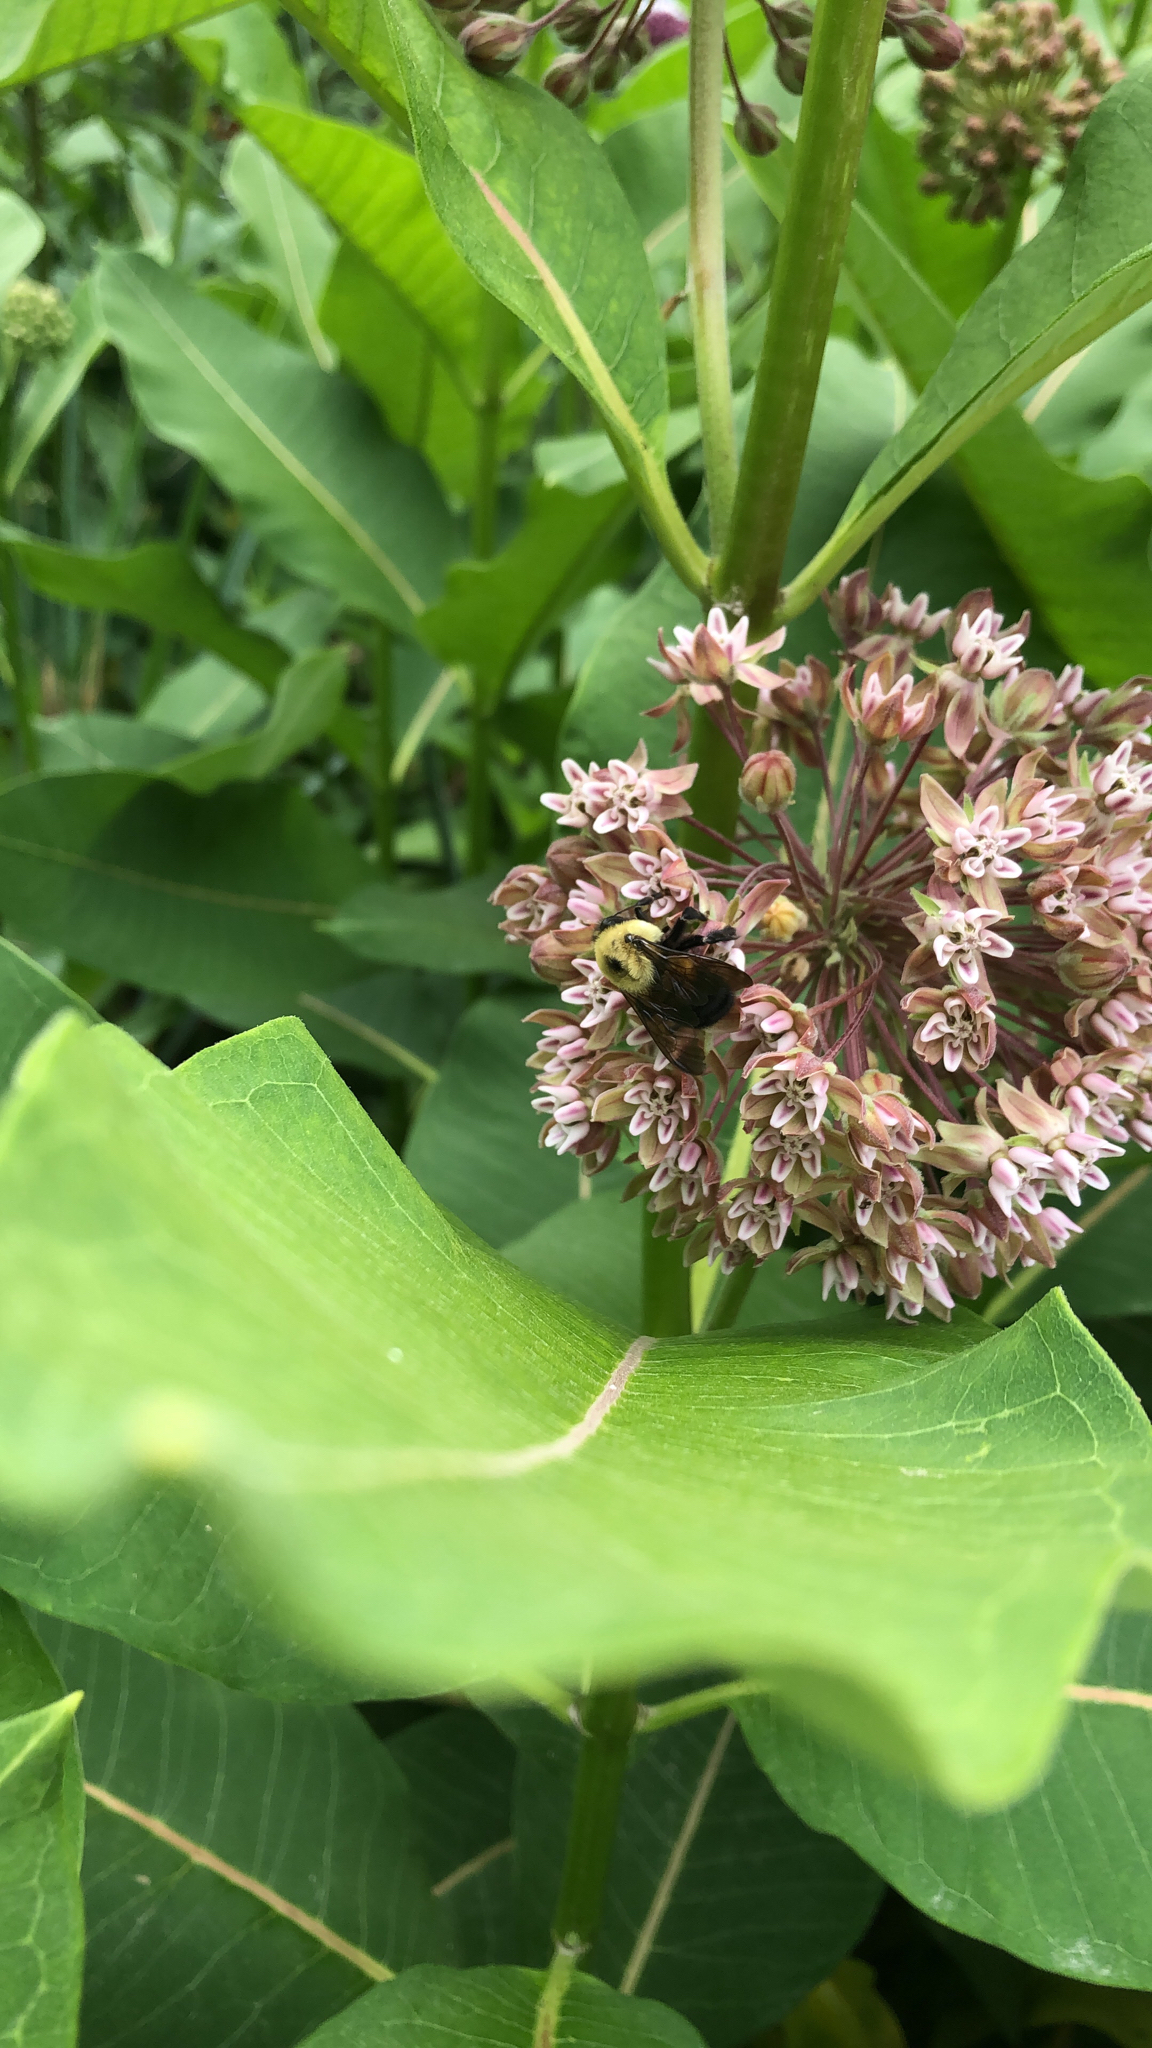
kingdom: Animalia
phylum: Arthropoda
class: Insecta
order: Hymenoptera
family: Apidae
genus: Bombus
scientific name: Bombus griseocollis
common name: Brown-belted bumble bee
